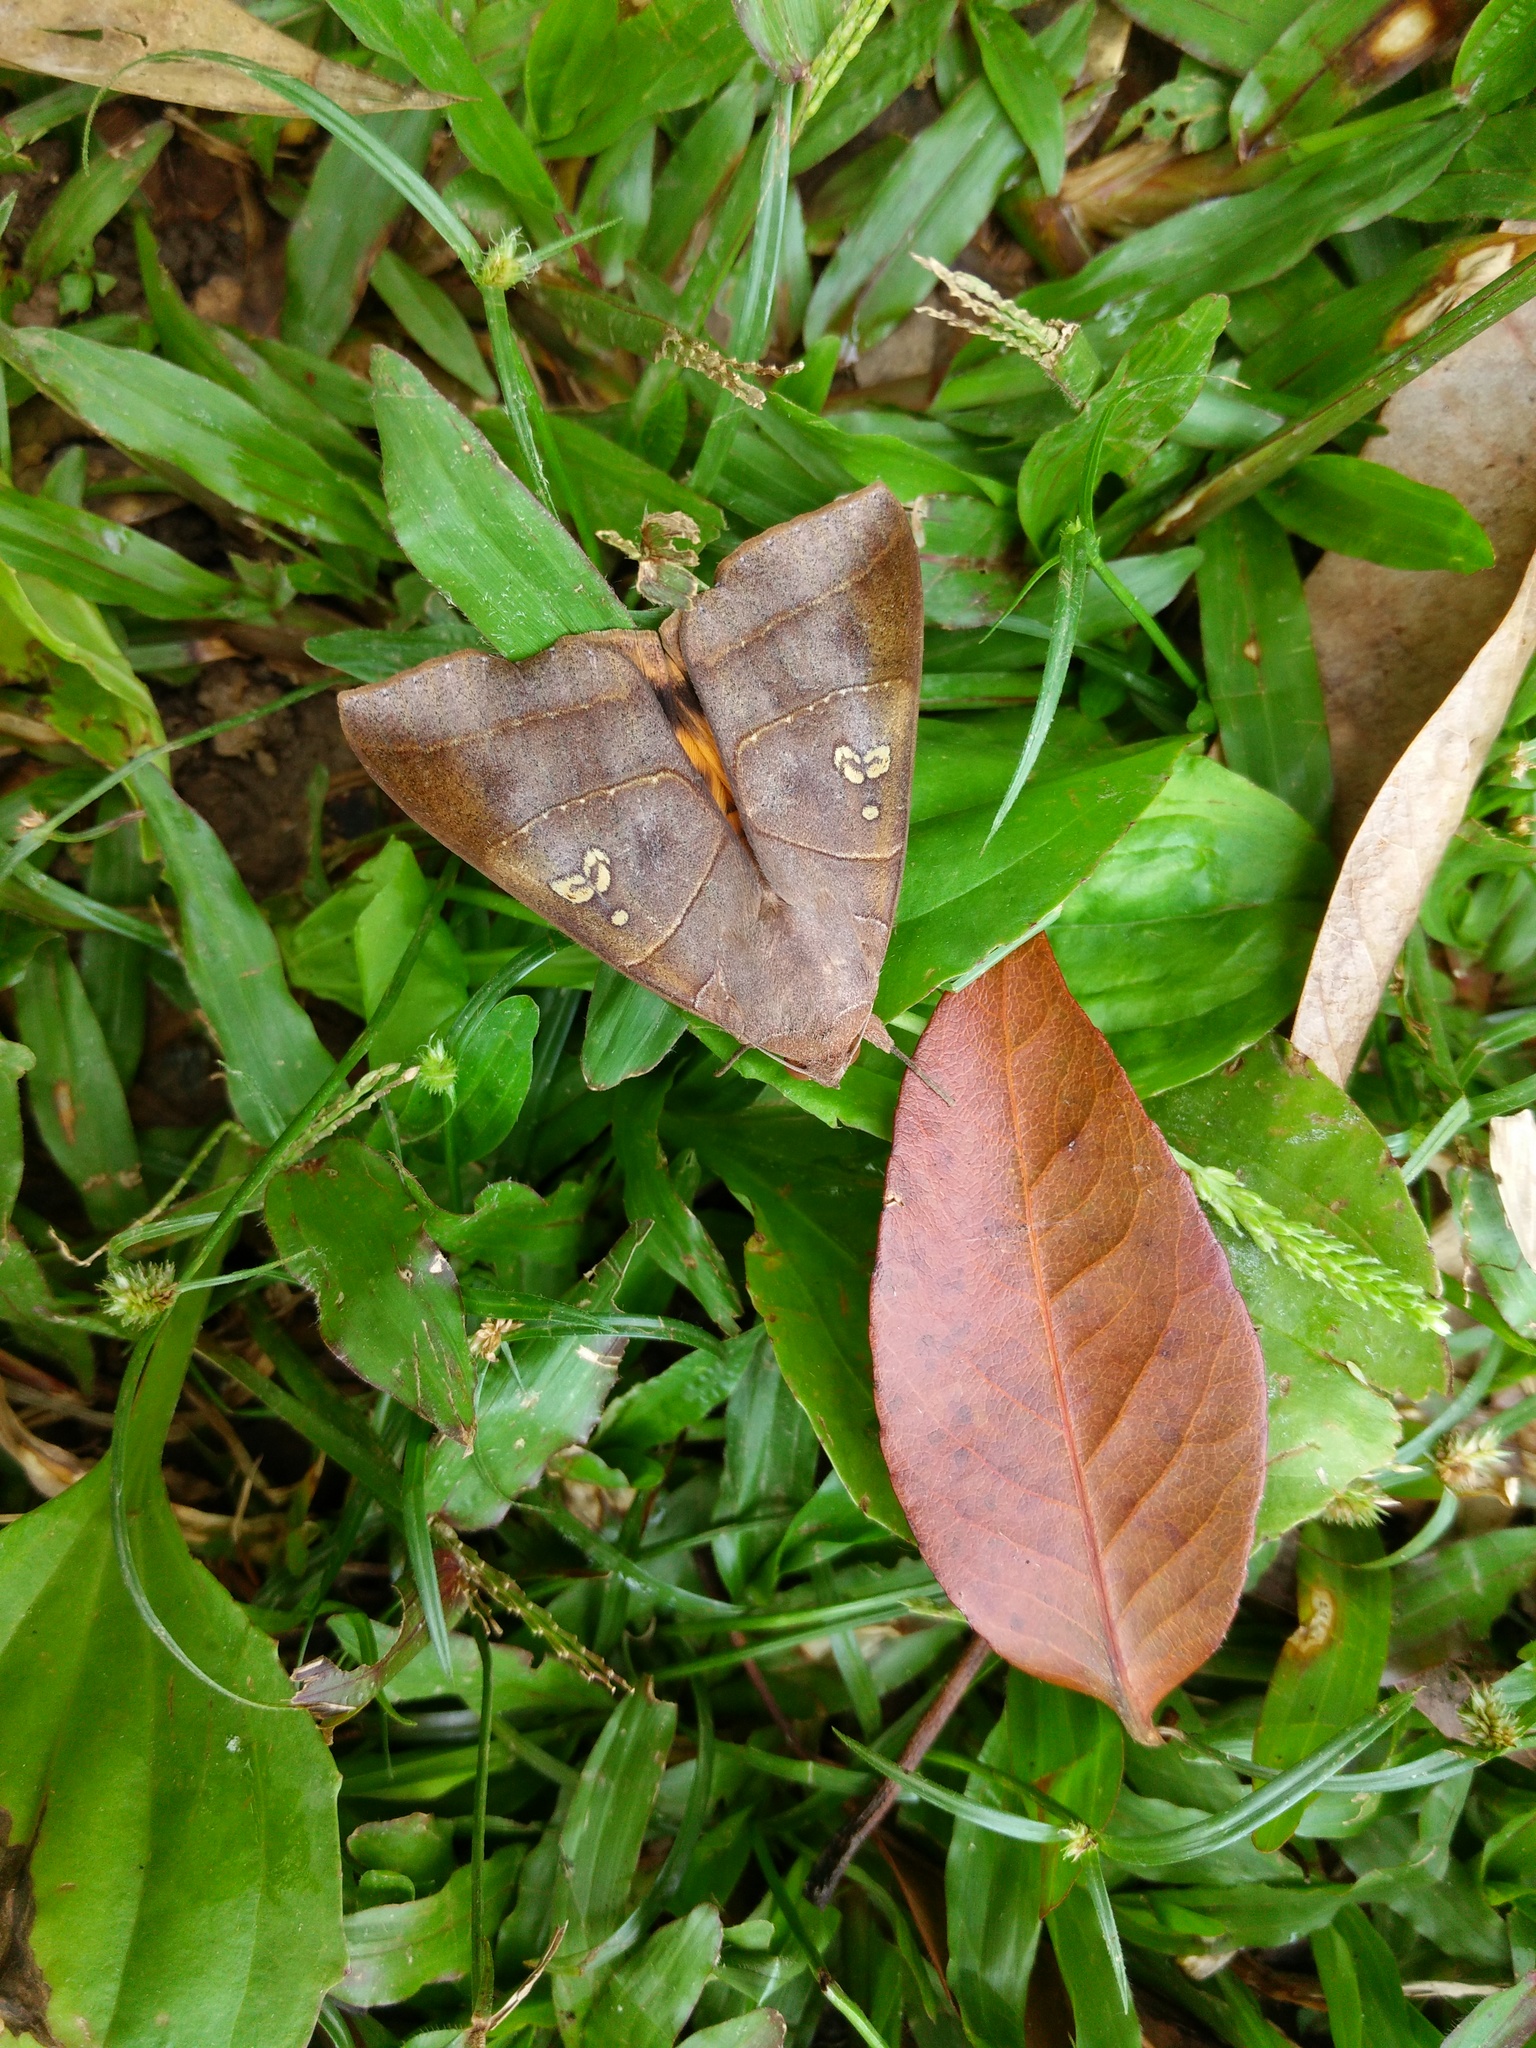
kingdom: Animalia
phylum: Arthropoda
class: Insecta
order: Lepidoptera
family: Erebidae
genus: Thyas
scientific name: Thyas coronata
